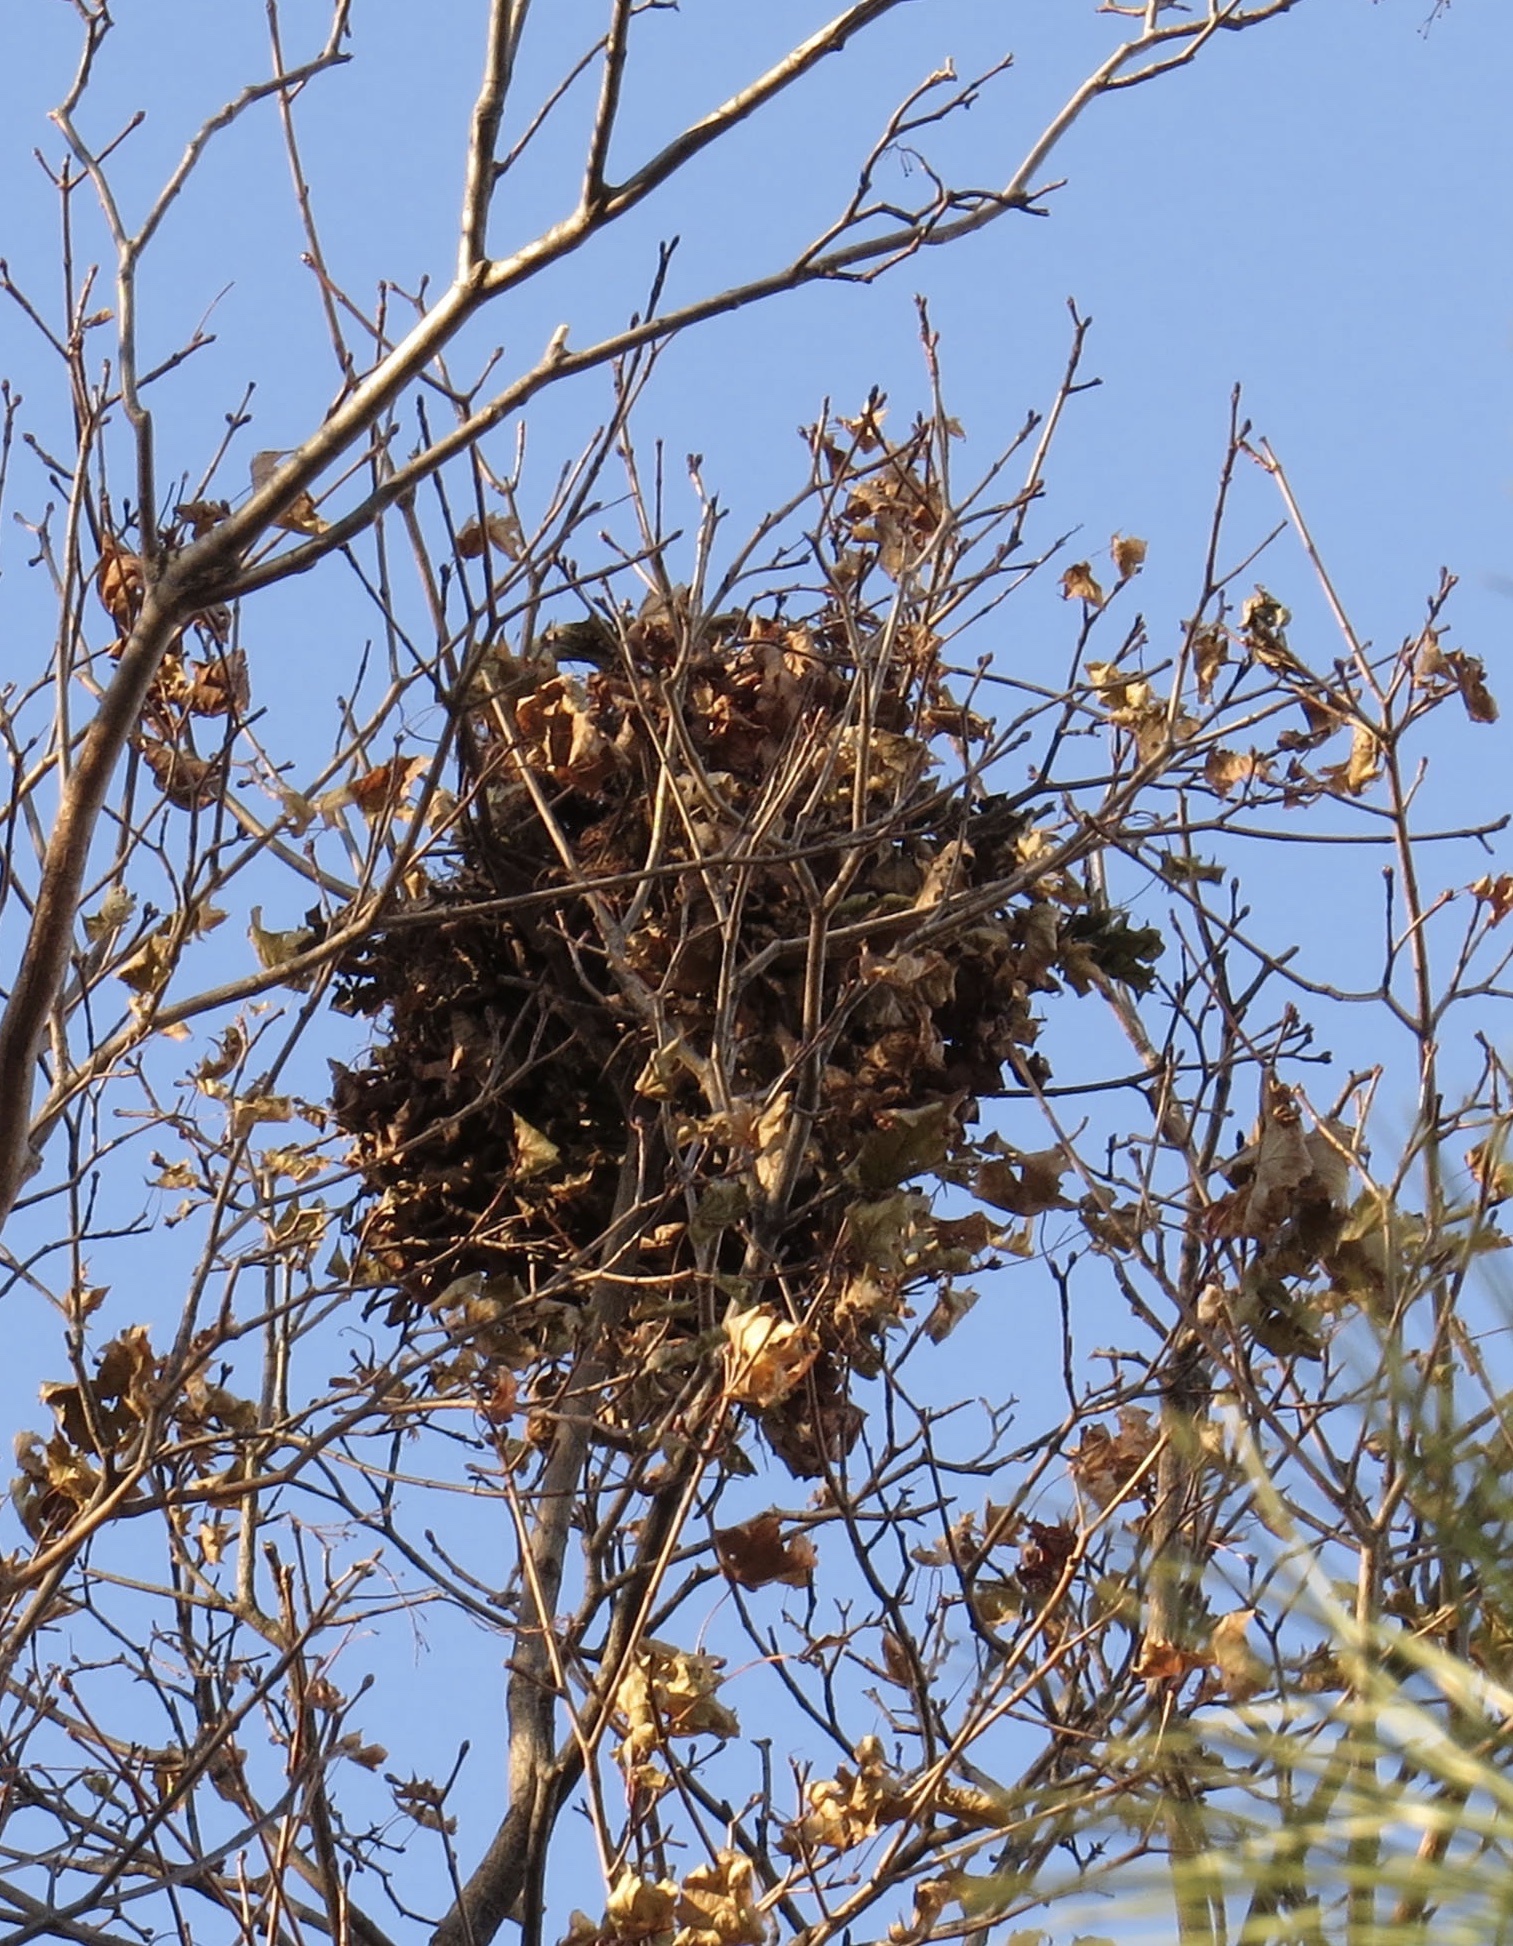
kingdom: Animalia
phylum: Chordata
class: Mammalia
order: Rodentia
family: Sciuridae
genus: Sciurus
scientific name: Sciurus carolinensis
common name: Eastern gray squirrel
